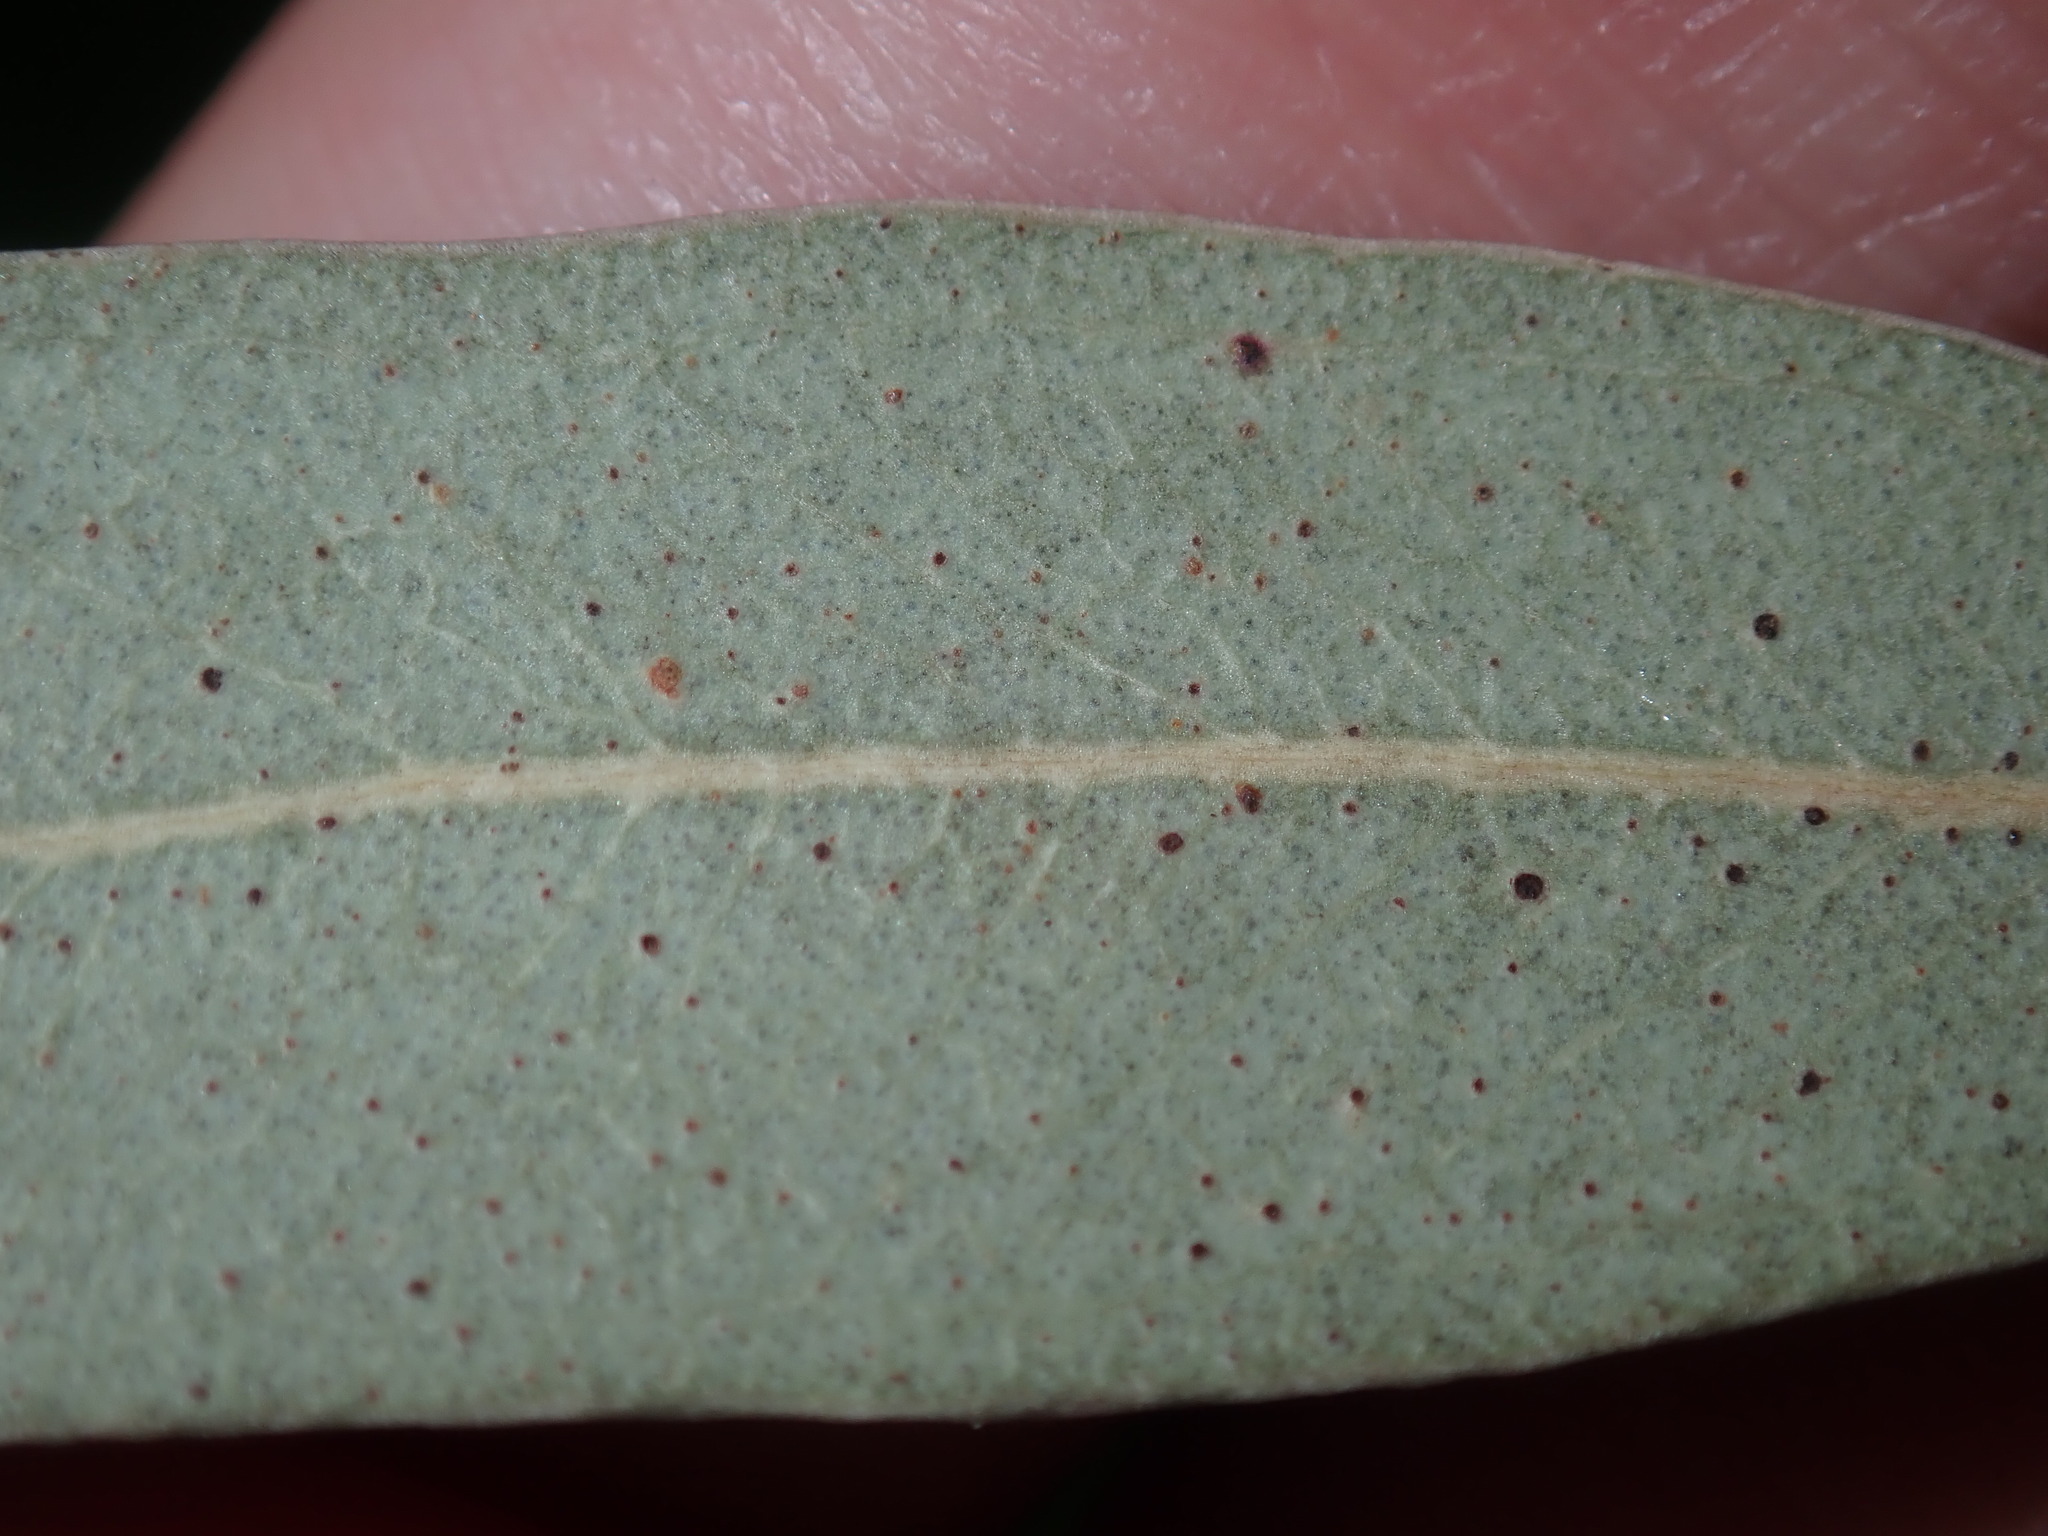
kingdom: Plantae
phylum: Tracheophyta
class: Magnoliopsida
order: Myrtales
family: Myrtaceae
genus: Eucalyptus
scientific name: Eucalyptus camaldulensis
